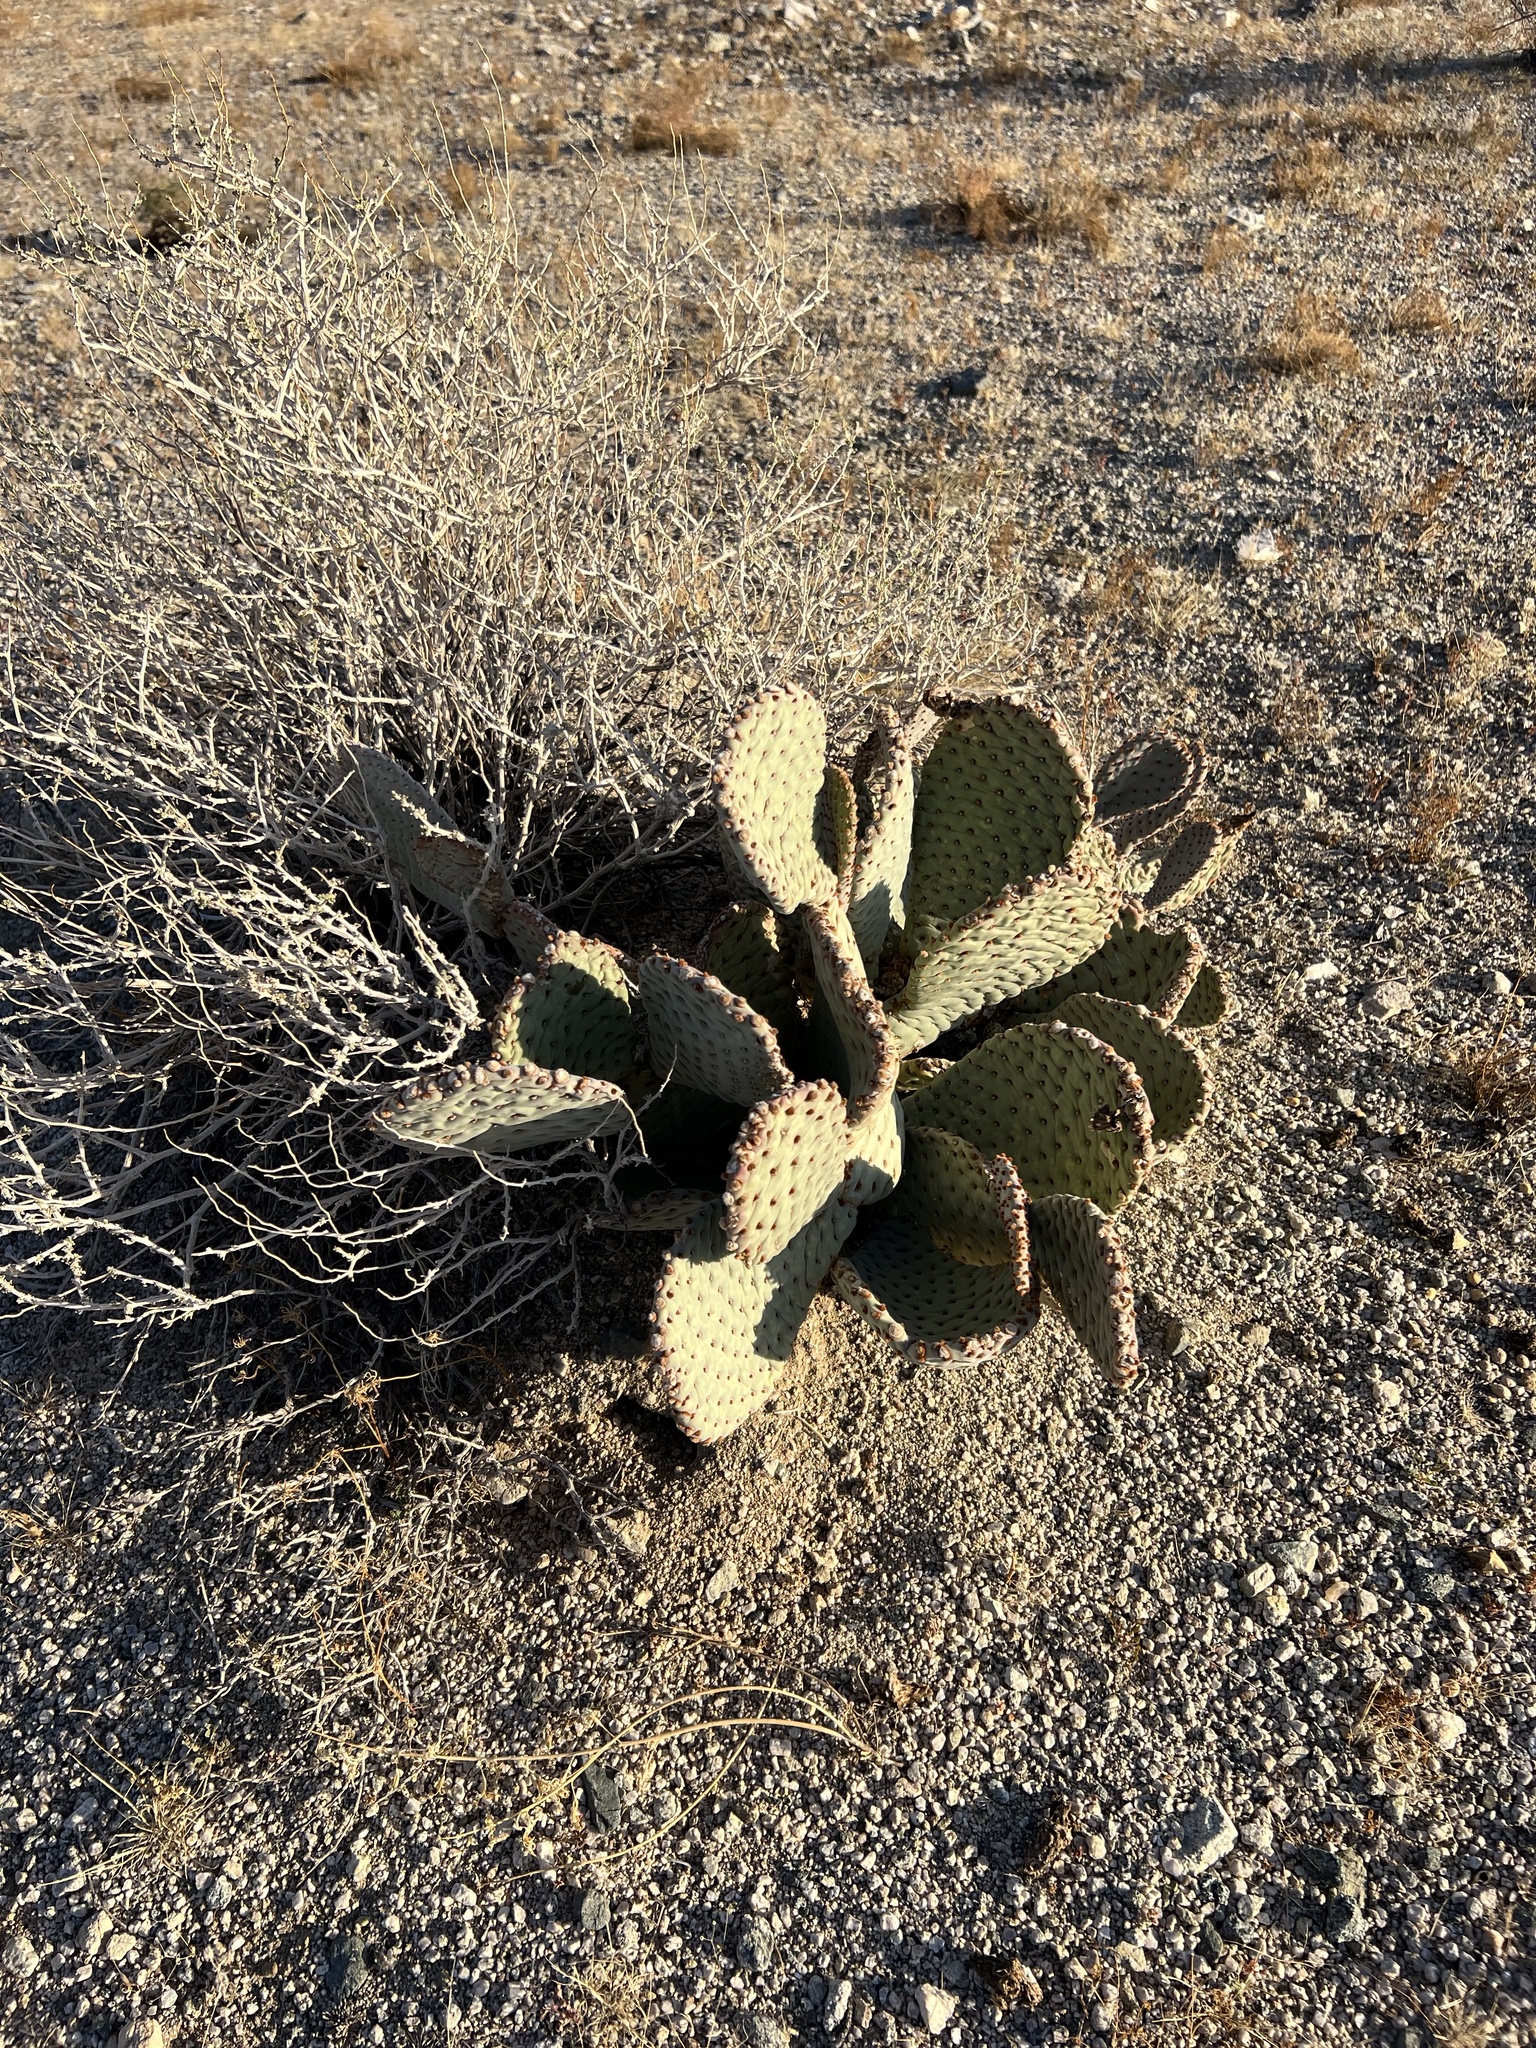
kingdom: Plantae
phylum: Tracheophyta
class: Magnoliopsida
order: Caryophyllales
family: Cactaceae
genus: Opuntia
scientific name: Opuntia basilaris
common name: Beavertail prickly-pear
